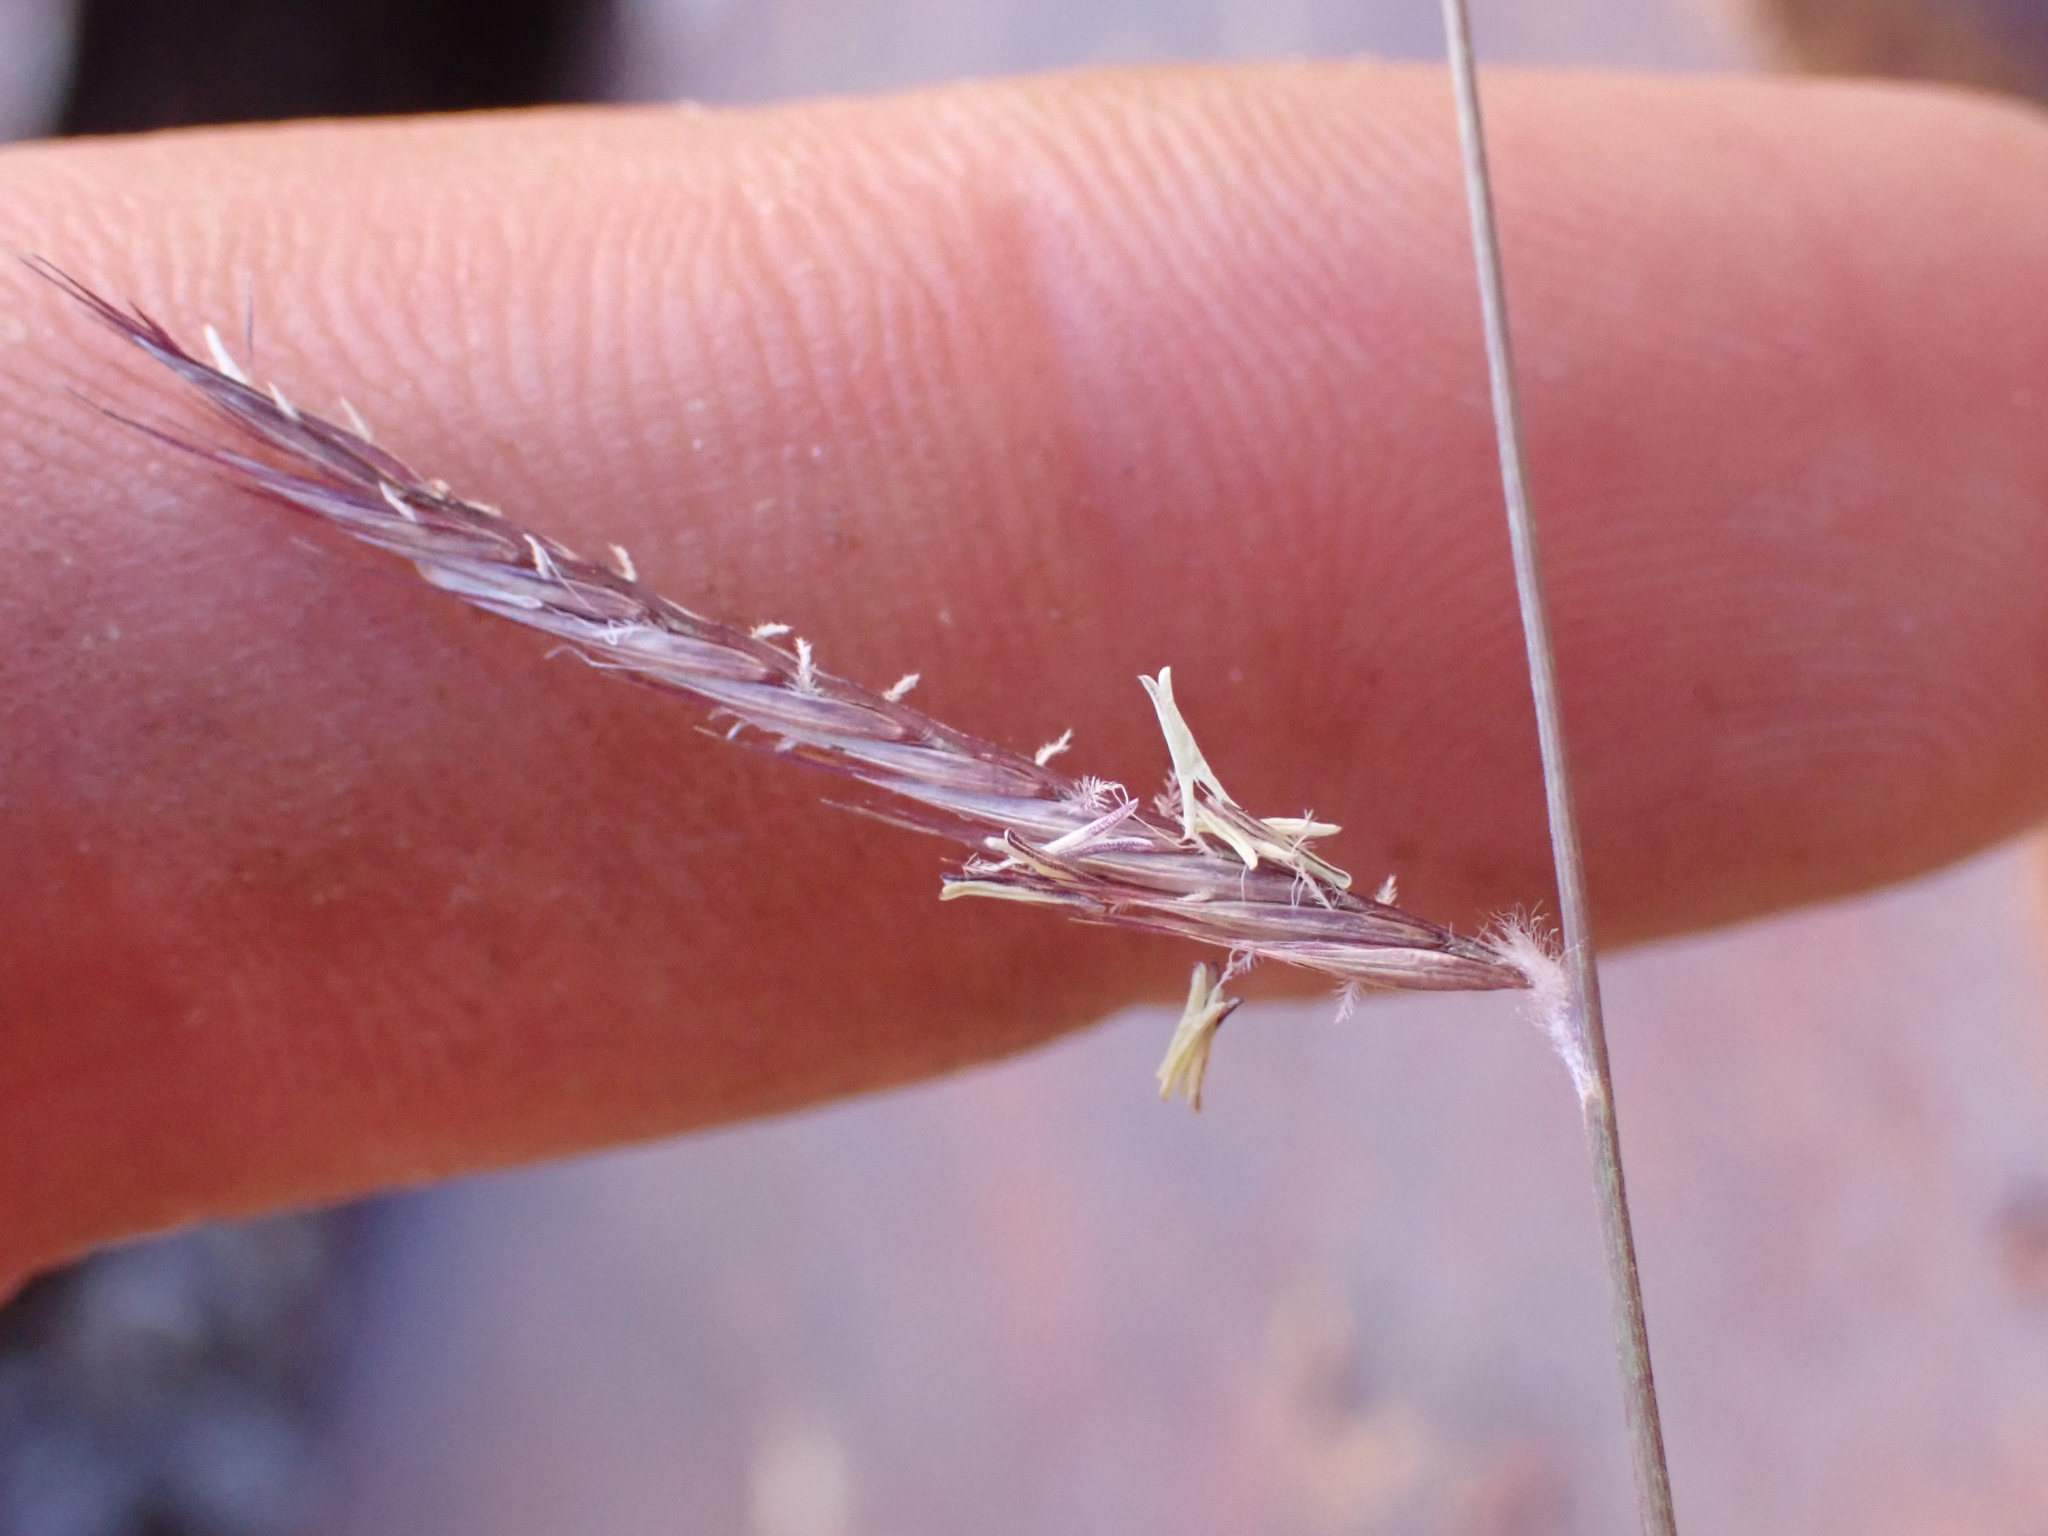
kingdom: Plantae
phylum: Tracheophyta
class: Liliopsida
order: Poales
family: Poaceae
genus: Bouteloua
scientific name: Bouteloua eriopoda
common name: Woolly foot grama
